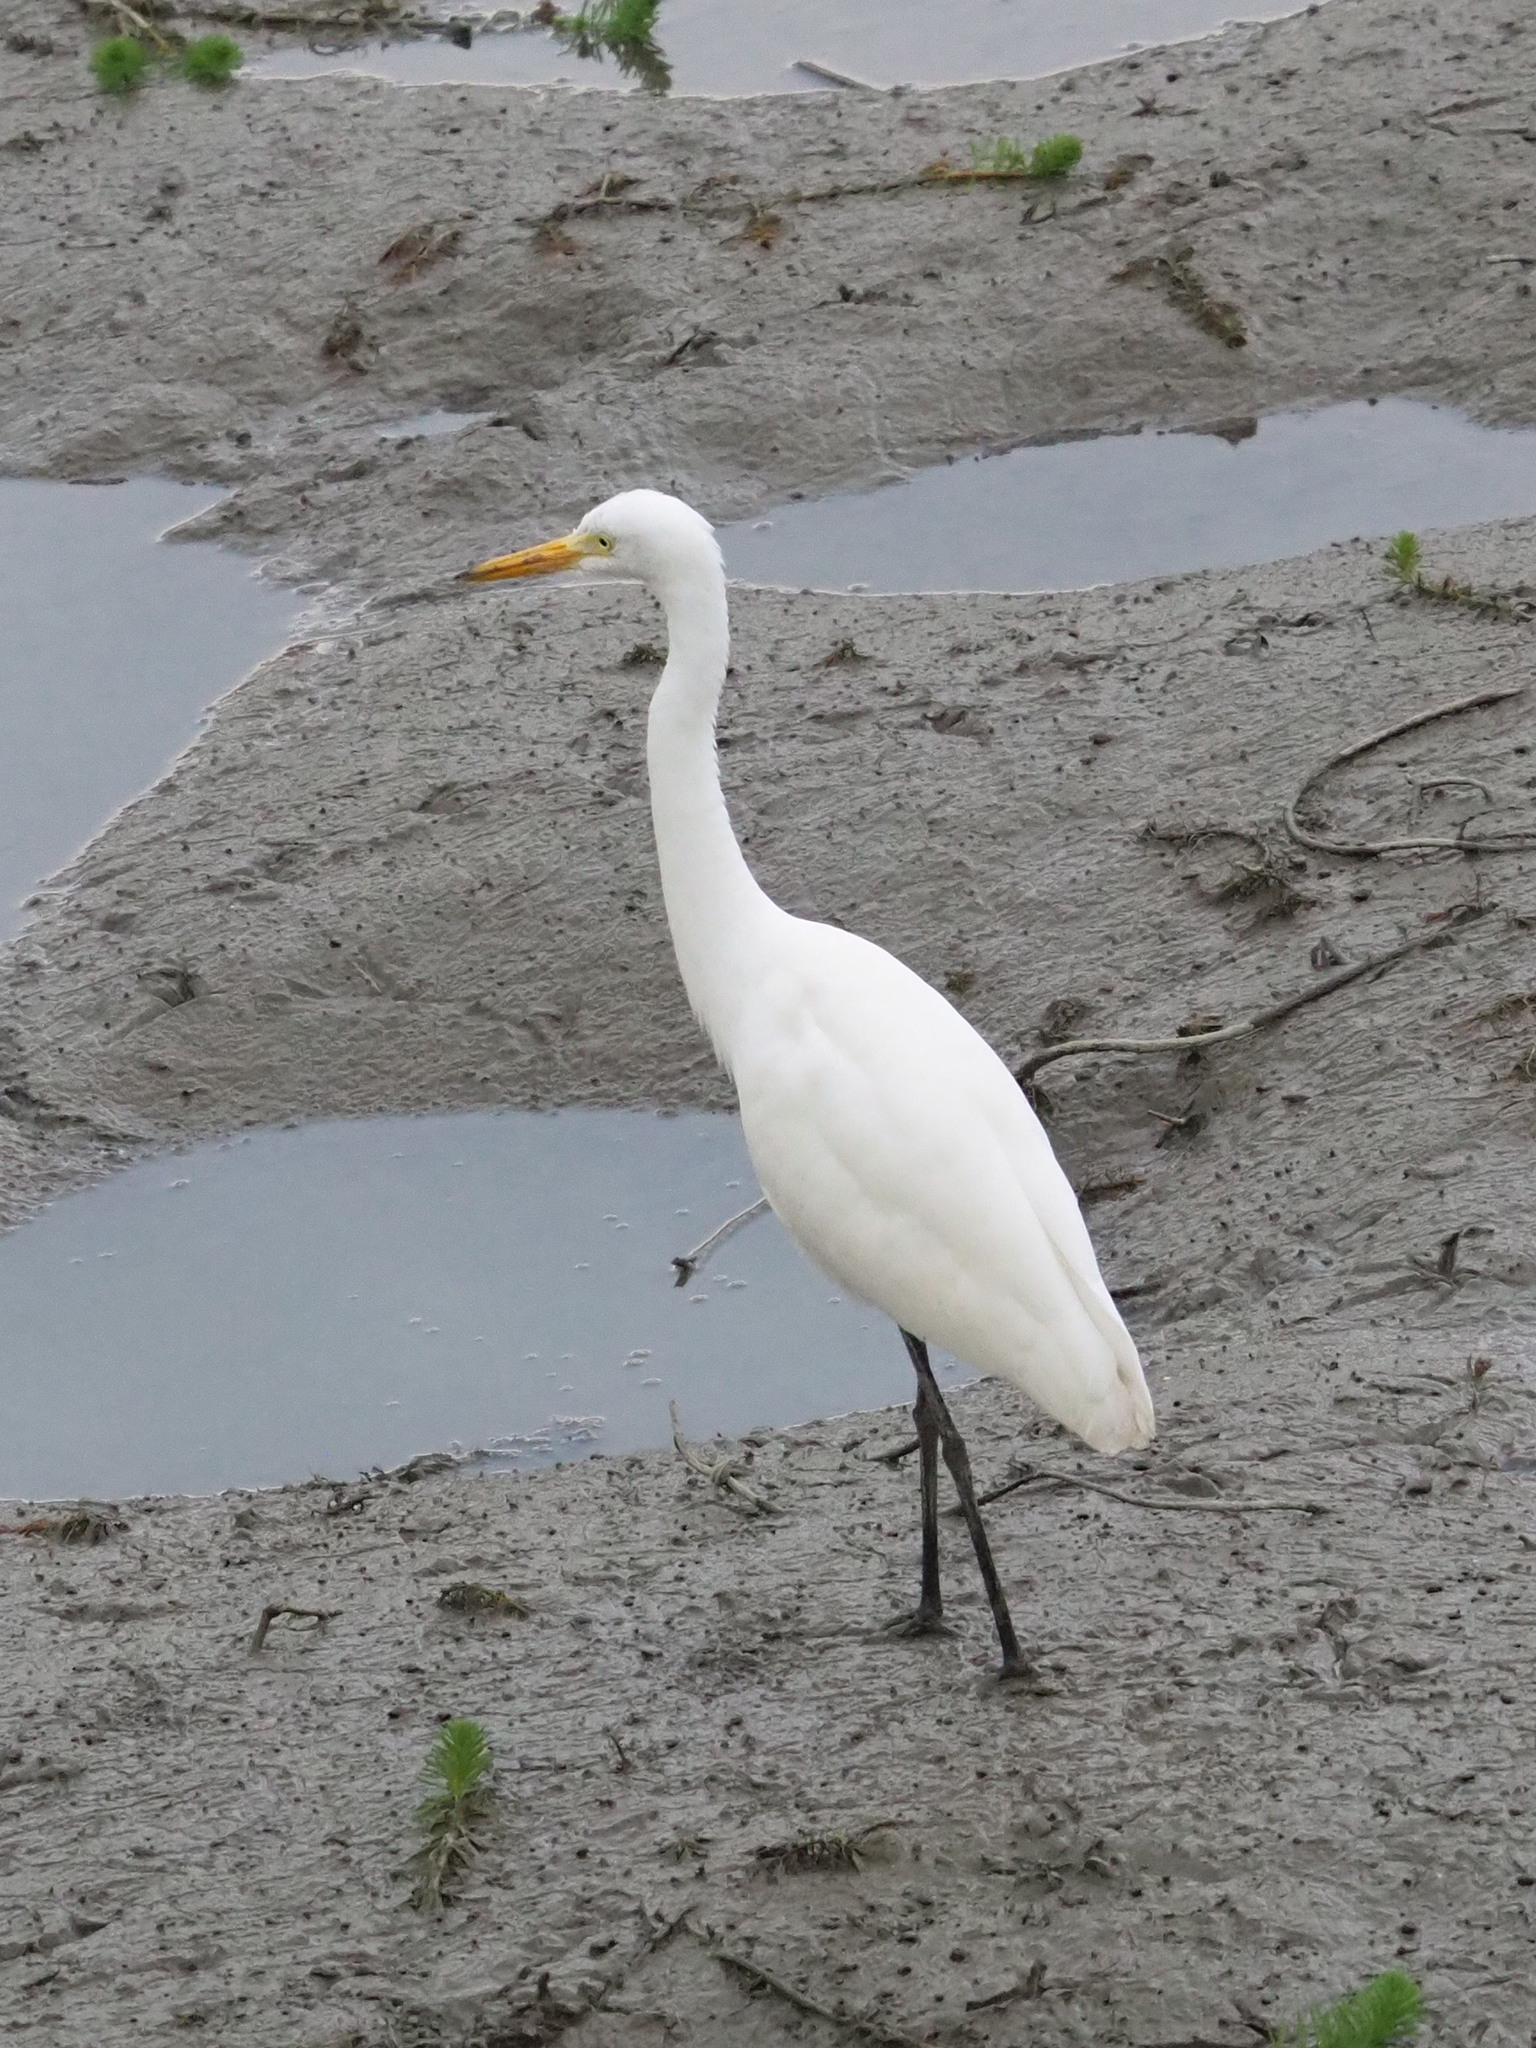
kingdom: Animalia
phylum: Chordata
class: Aves
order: Pelecaniformes
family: Ardeidae
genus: Egretta
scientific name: Egretta intermedia
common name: Intermediate egret
